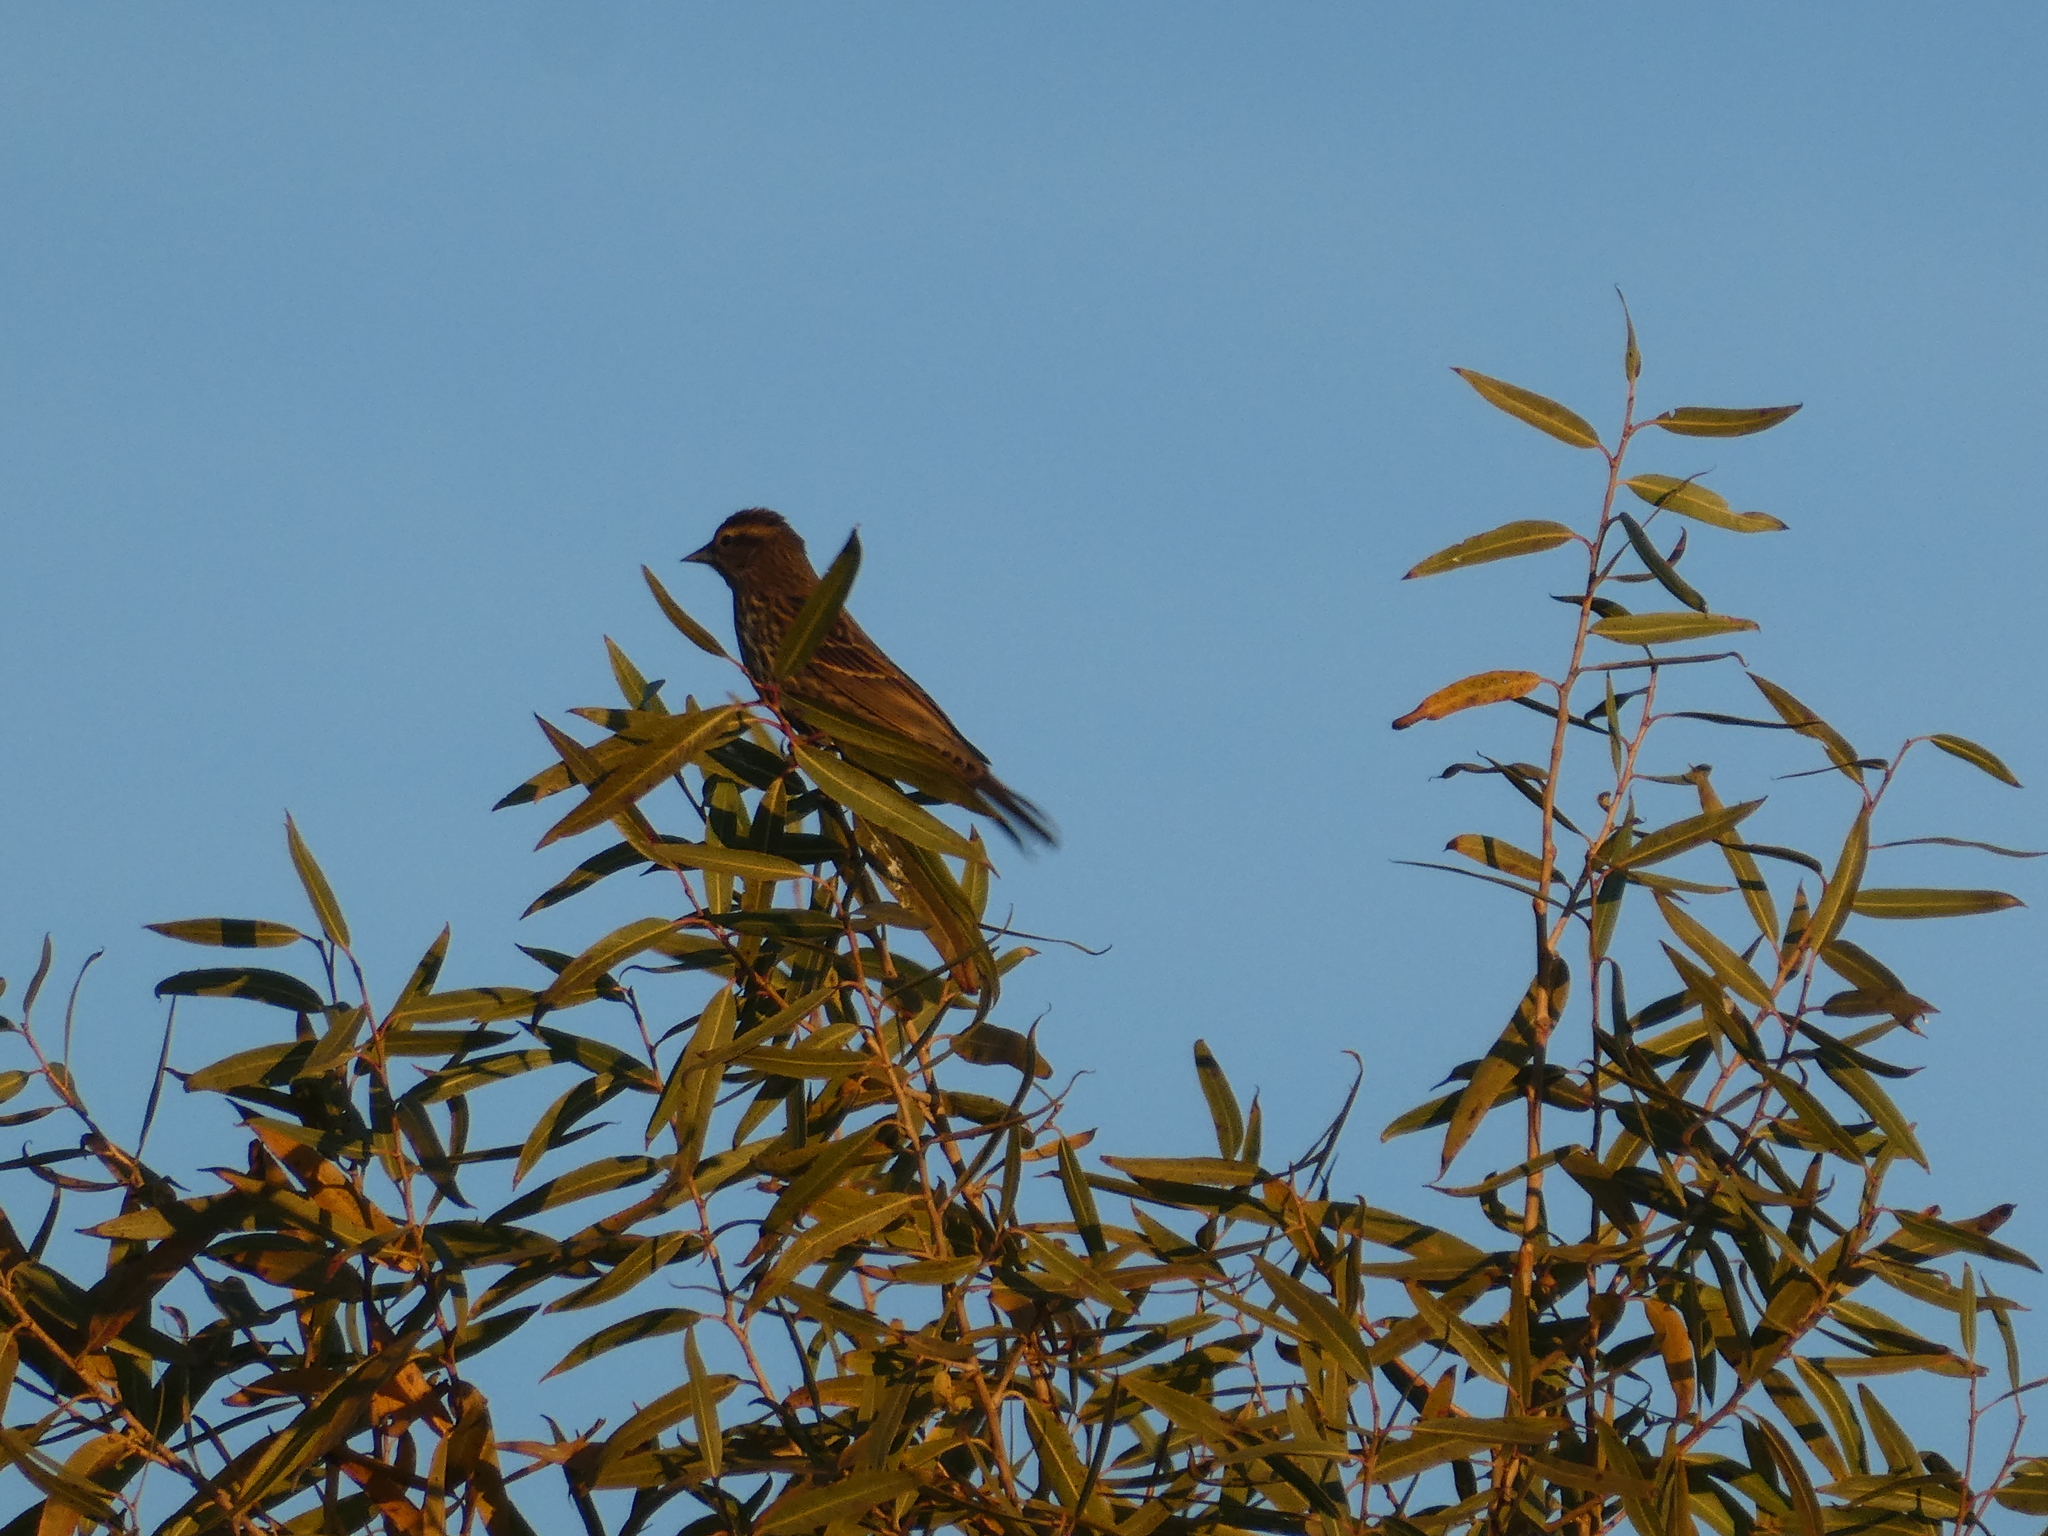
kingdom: Animalia
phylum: Chordata
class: Aves
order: Passeriformes
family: Icteridae
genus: Agelaius
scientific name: Agelaius phoeniceus
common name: Red-winged blackbird
